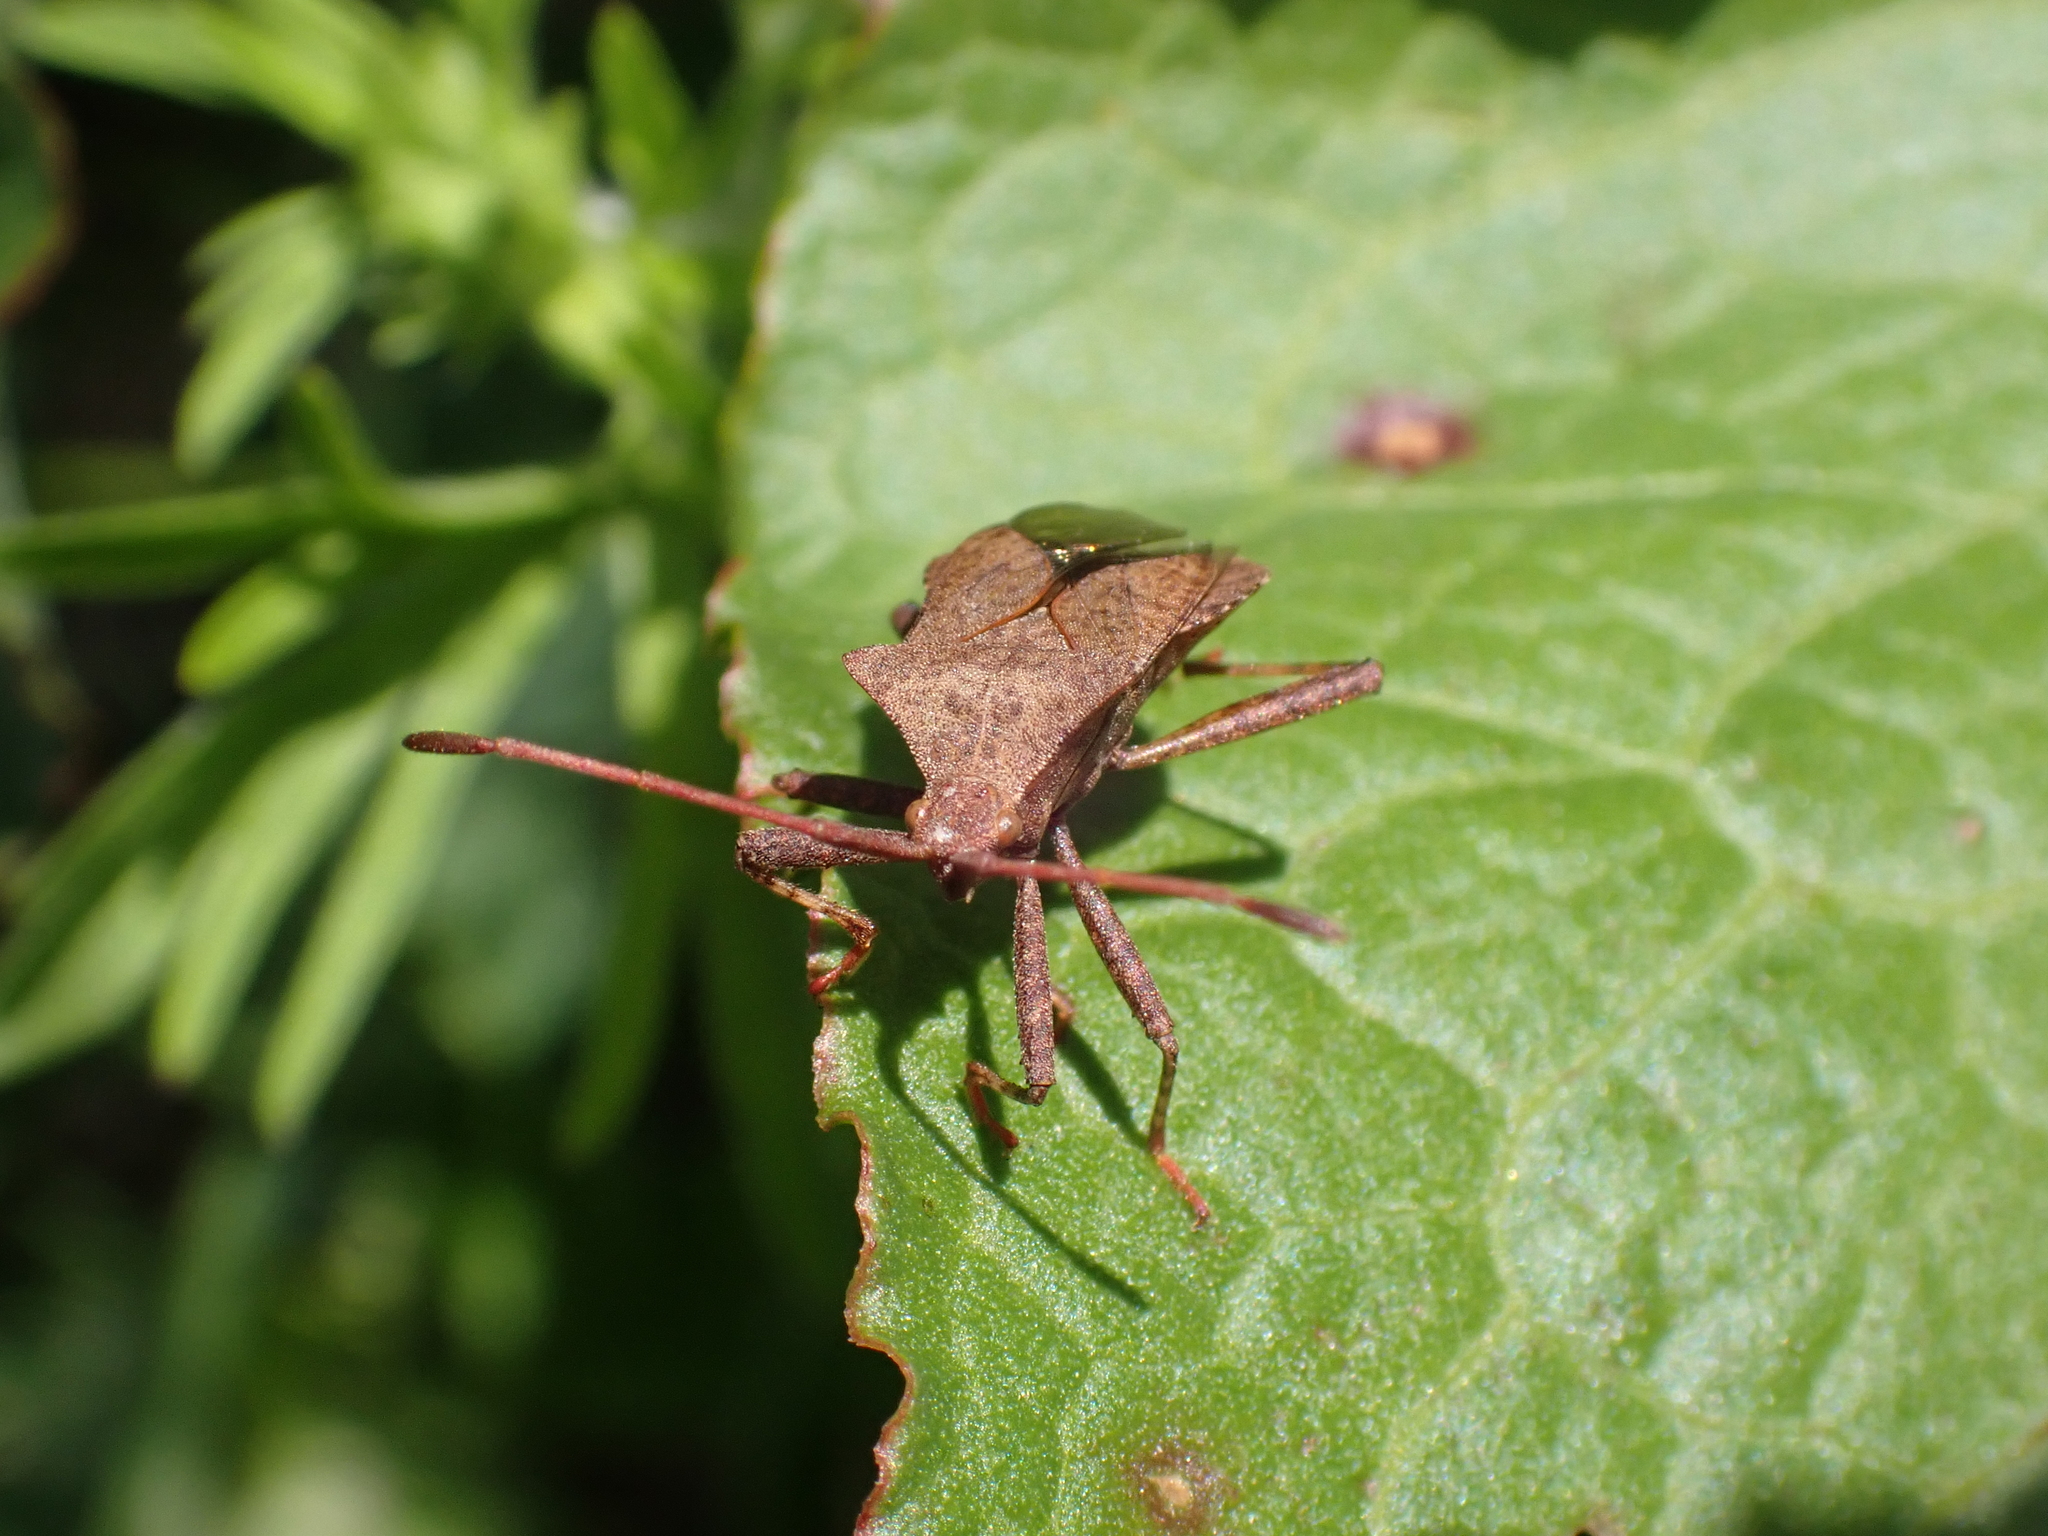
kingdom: Animalia
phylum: Arthropoda
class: Insecta
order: Hemiptera
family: Coreidae
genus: Coreus
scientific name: Coreus marginatus
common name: Dock bug
